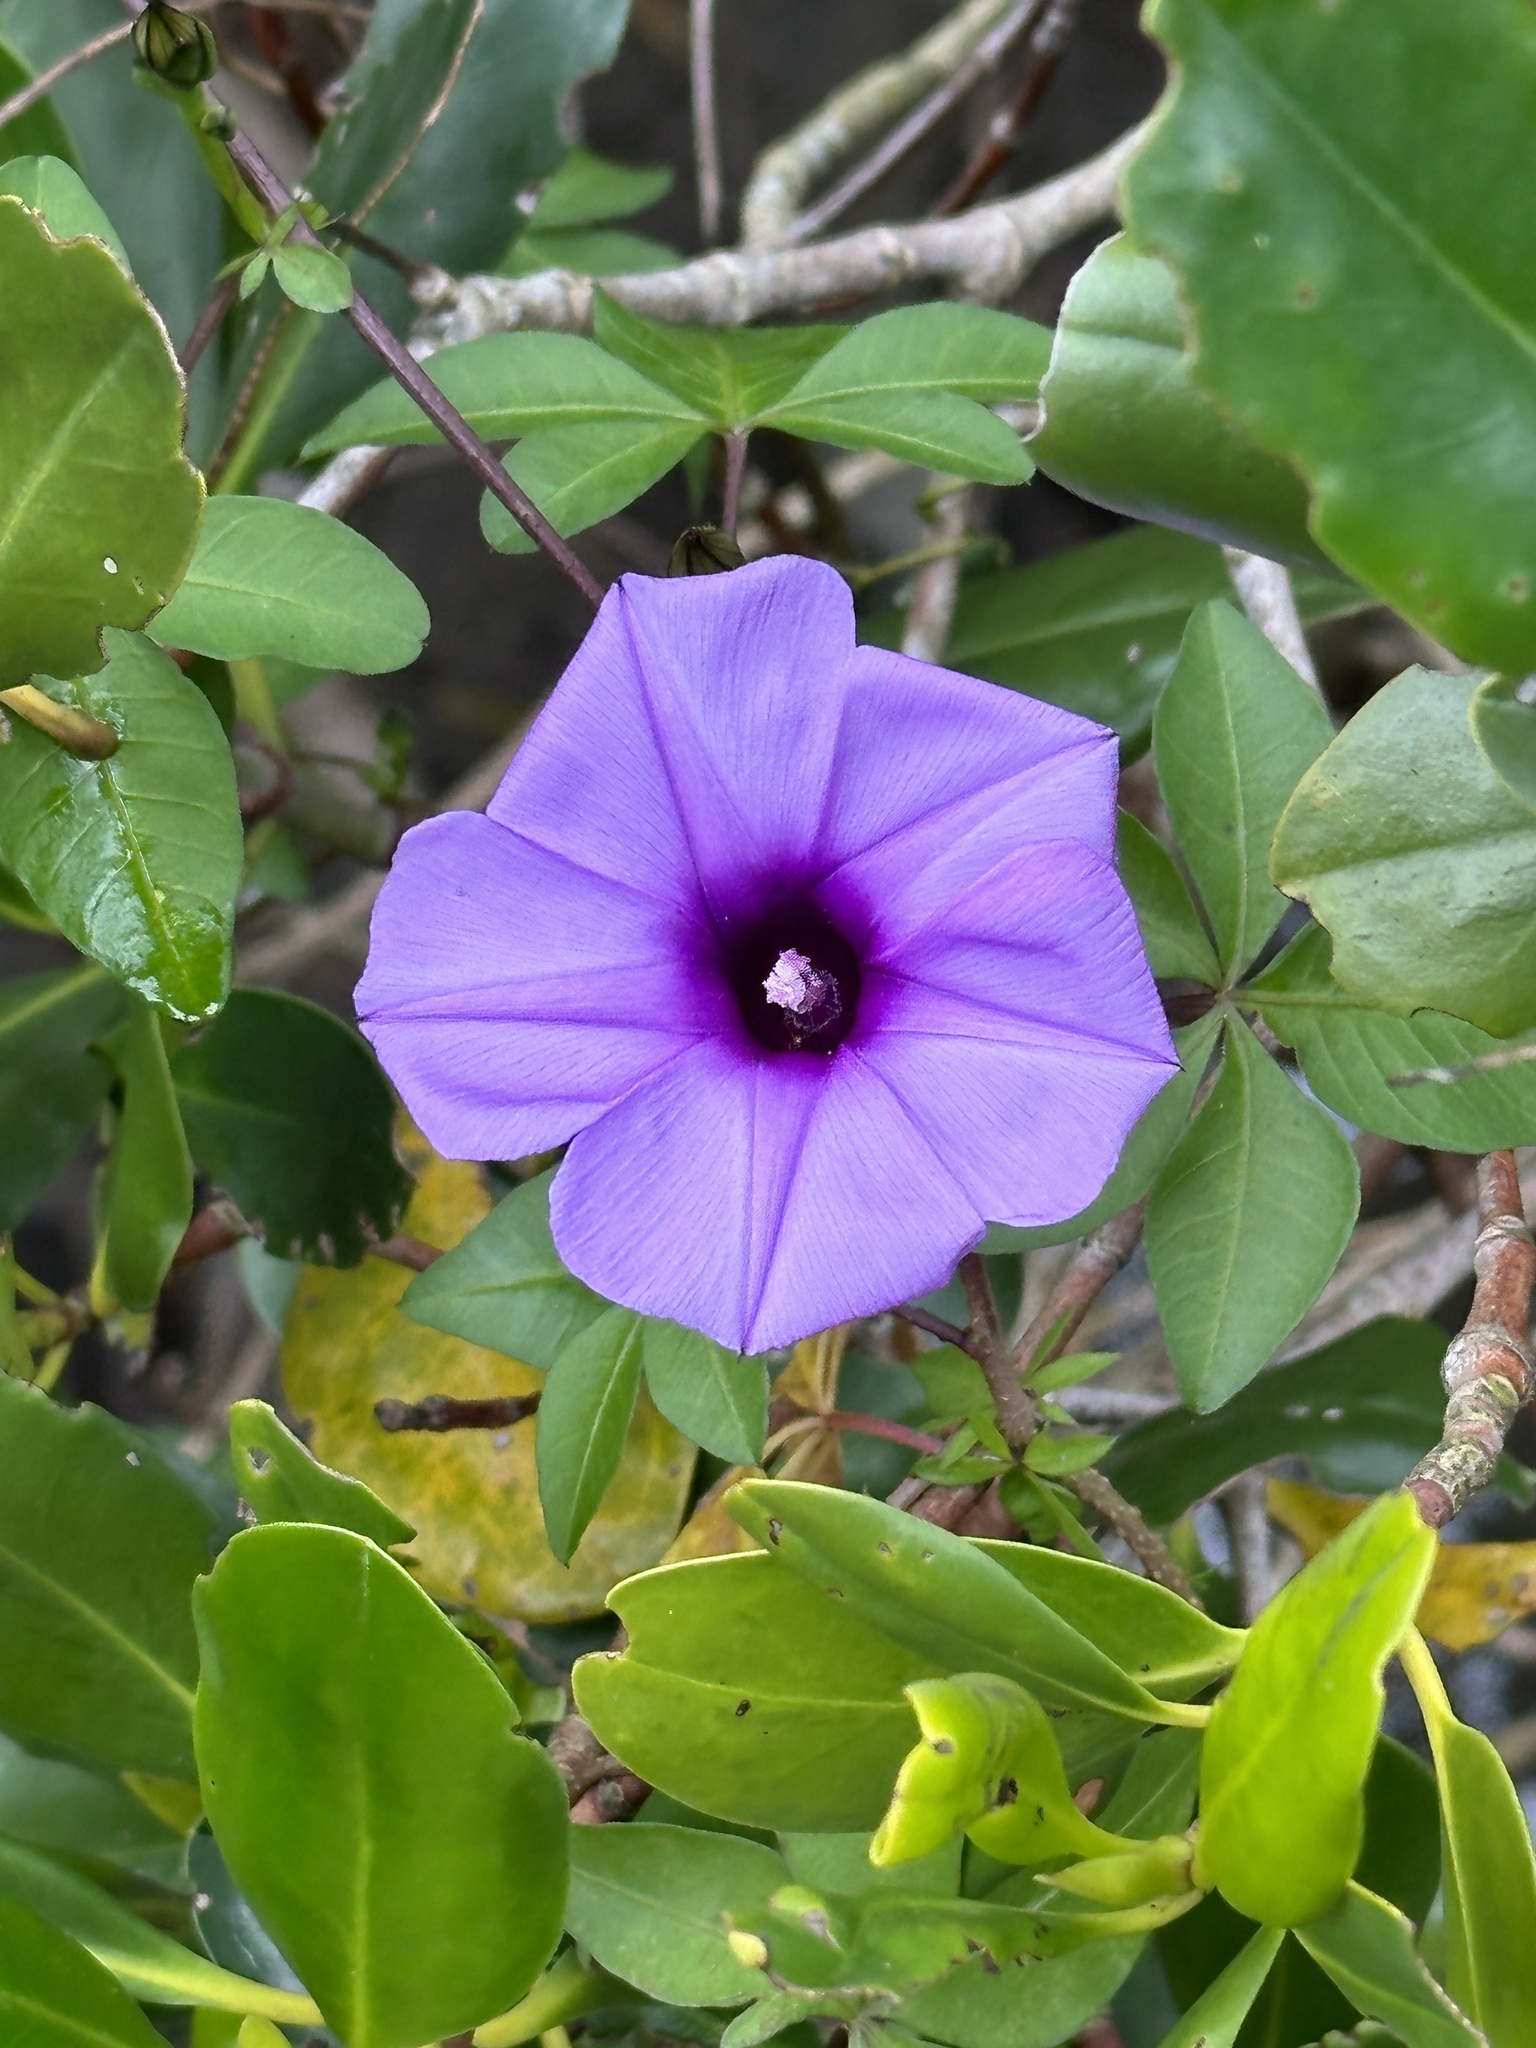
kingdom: Plantae
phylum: Tracheophyta
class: Magnoliopsida
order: Solanales
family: Convolvulaceae
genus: Ipomoea
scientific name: Ipomoea cairica
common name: Mile a minute vine
